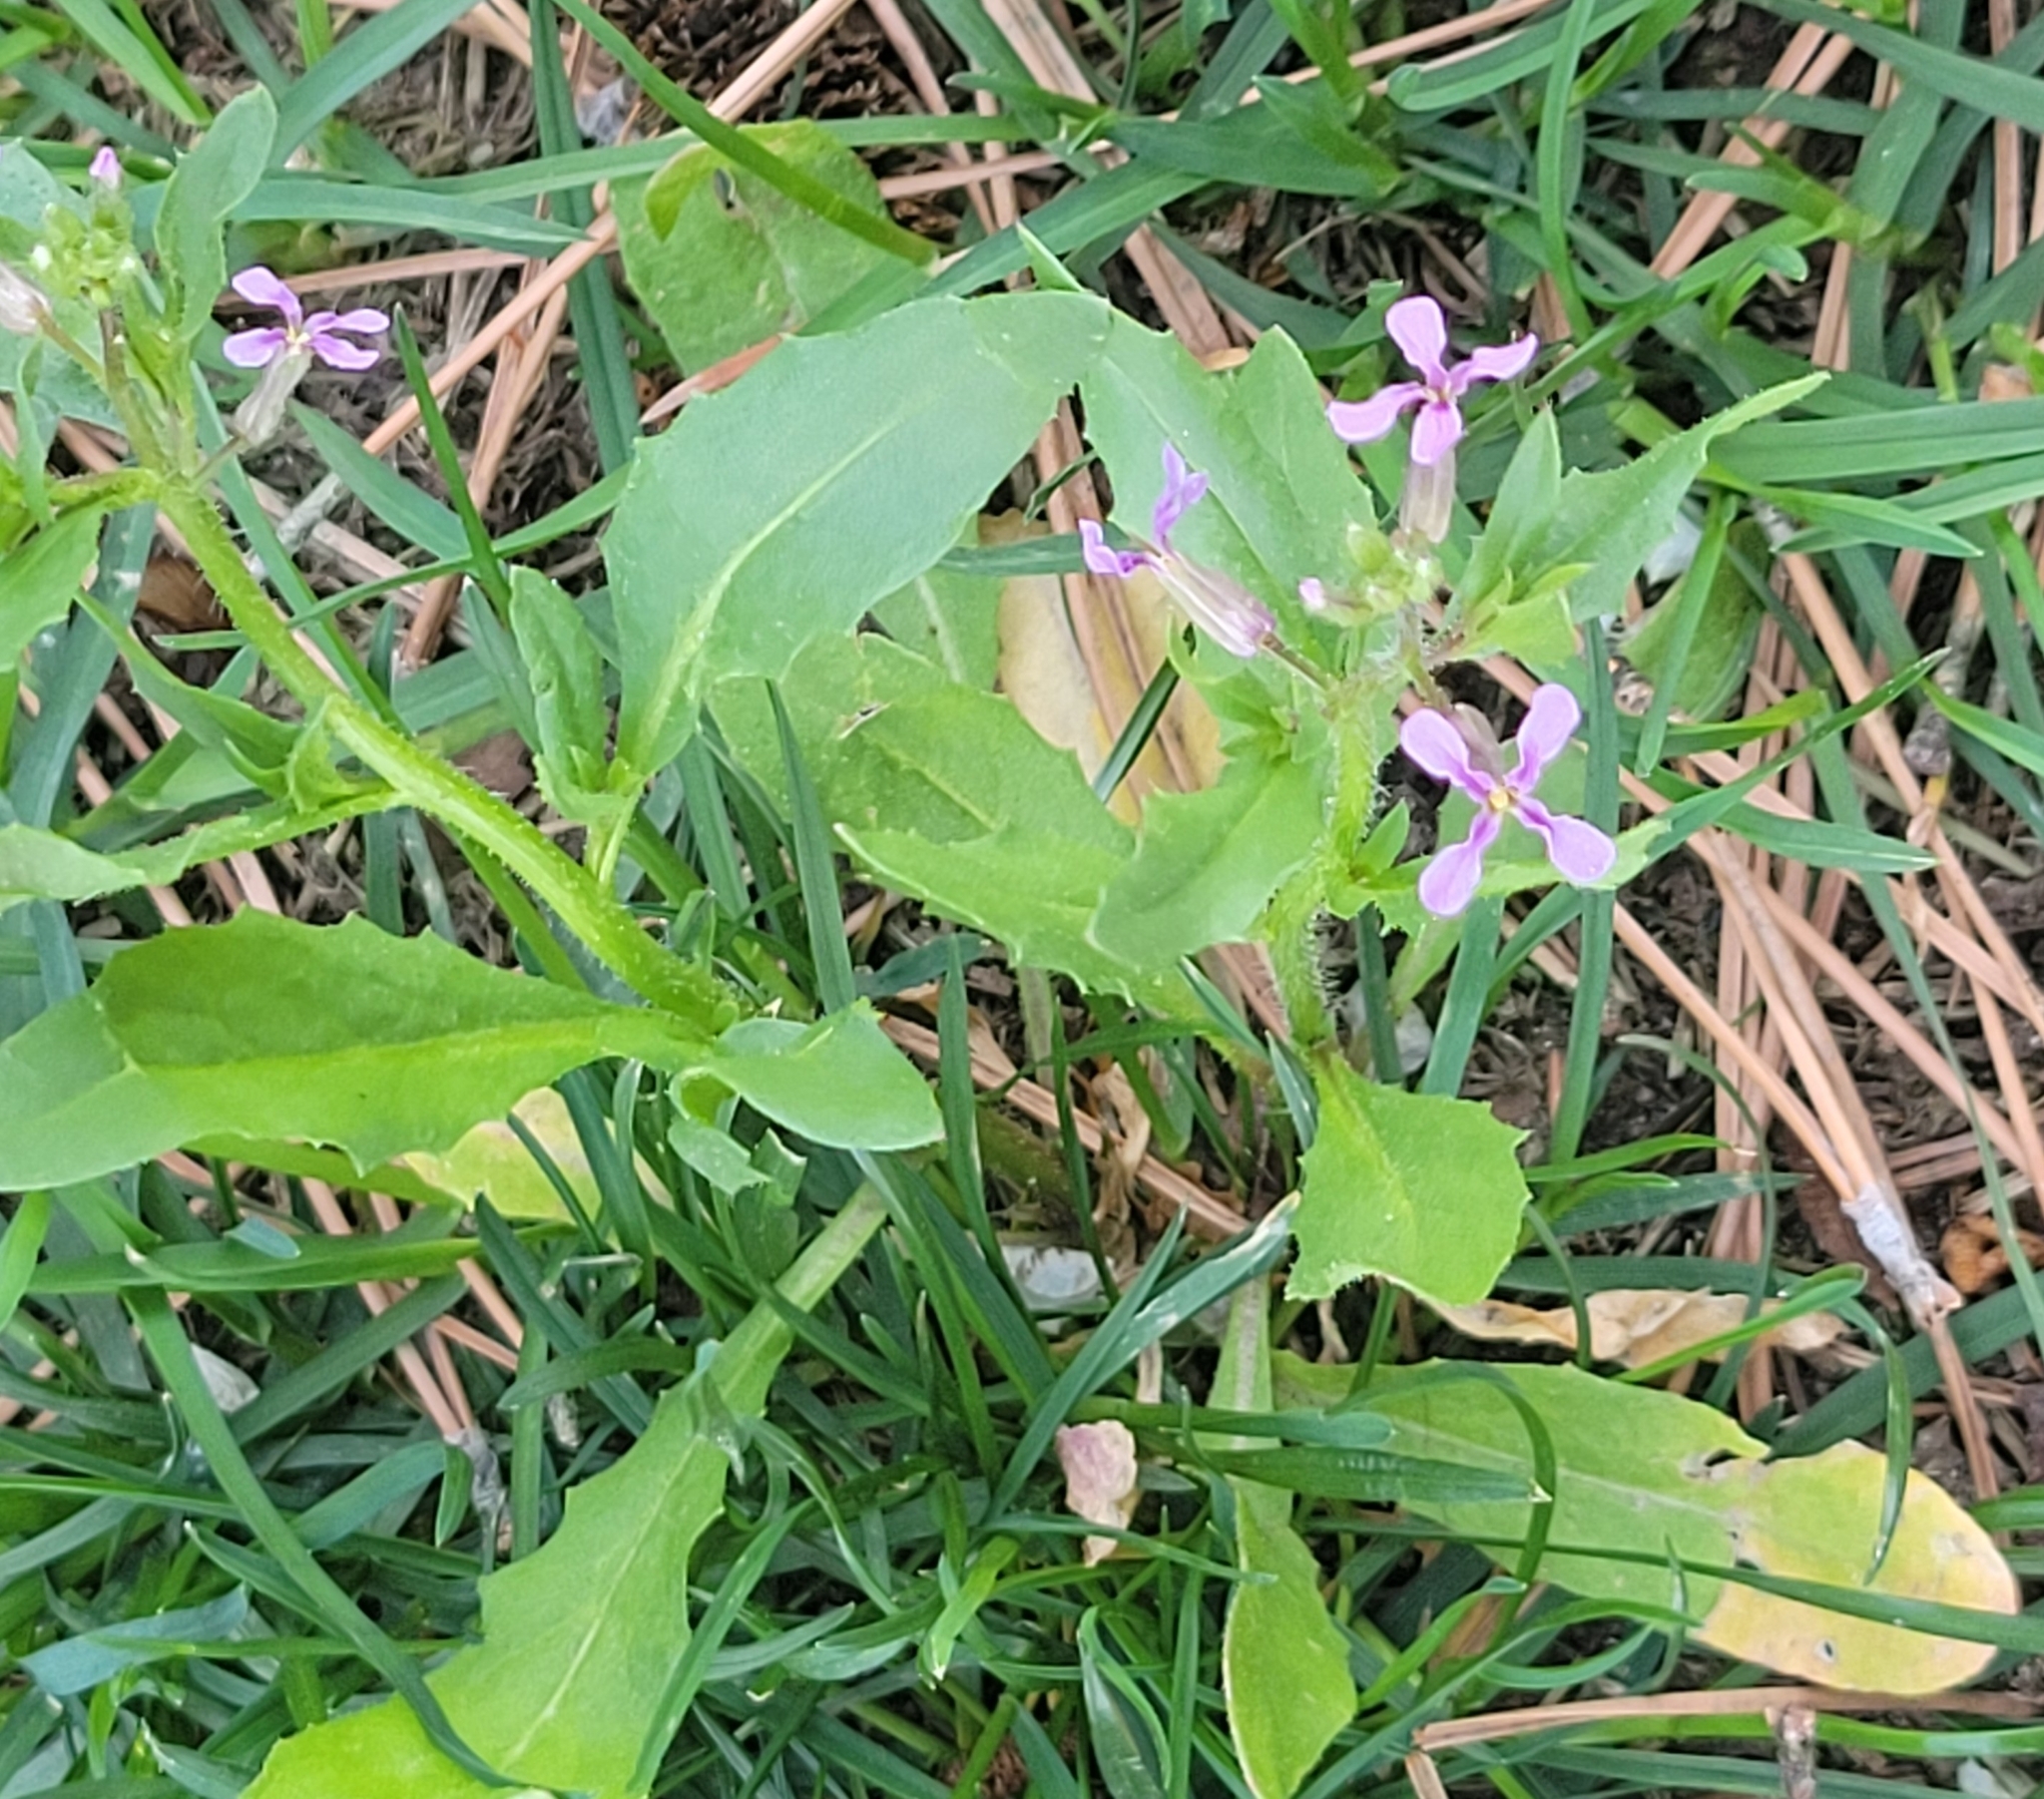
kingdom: Plantae
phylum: Tracheophyta
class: Magnoliopsida
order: Brassicales
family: Brassicaceae
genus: Chorispora
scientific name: Chorispora tenella
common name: Crossflower
